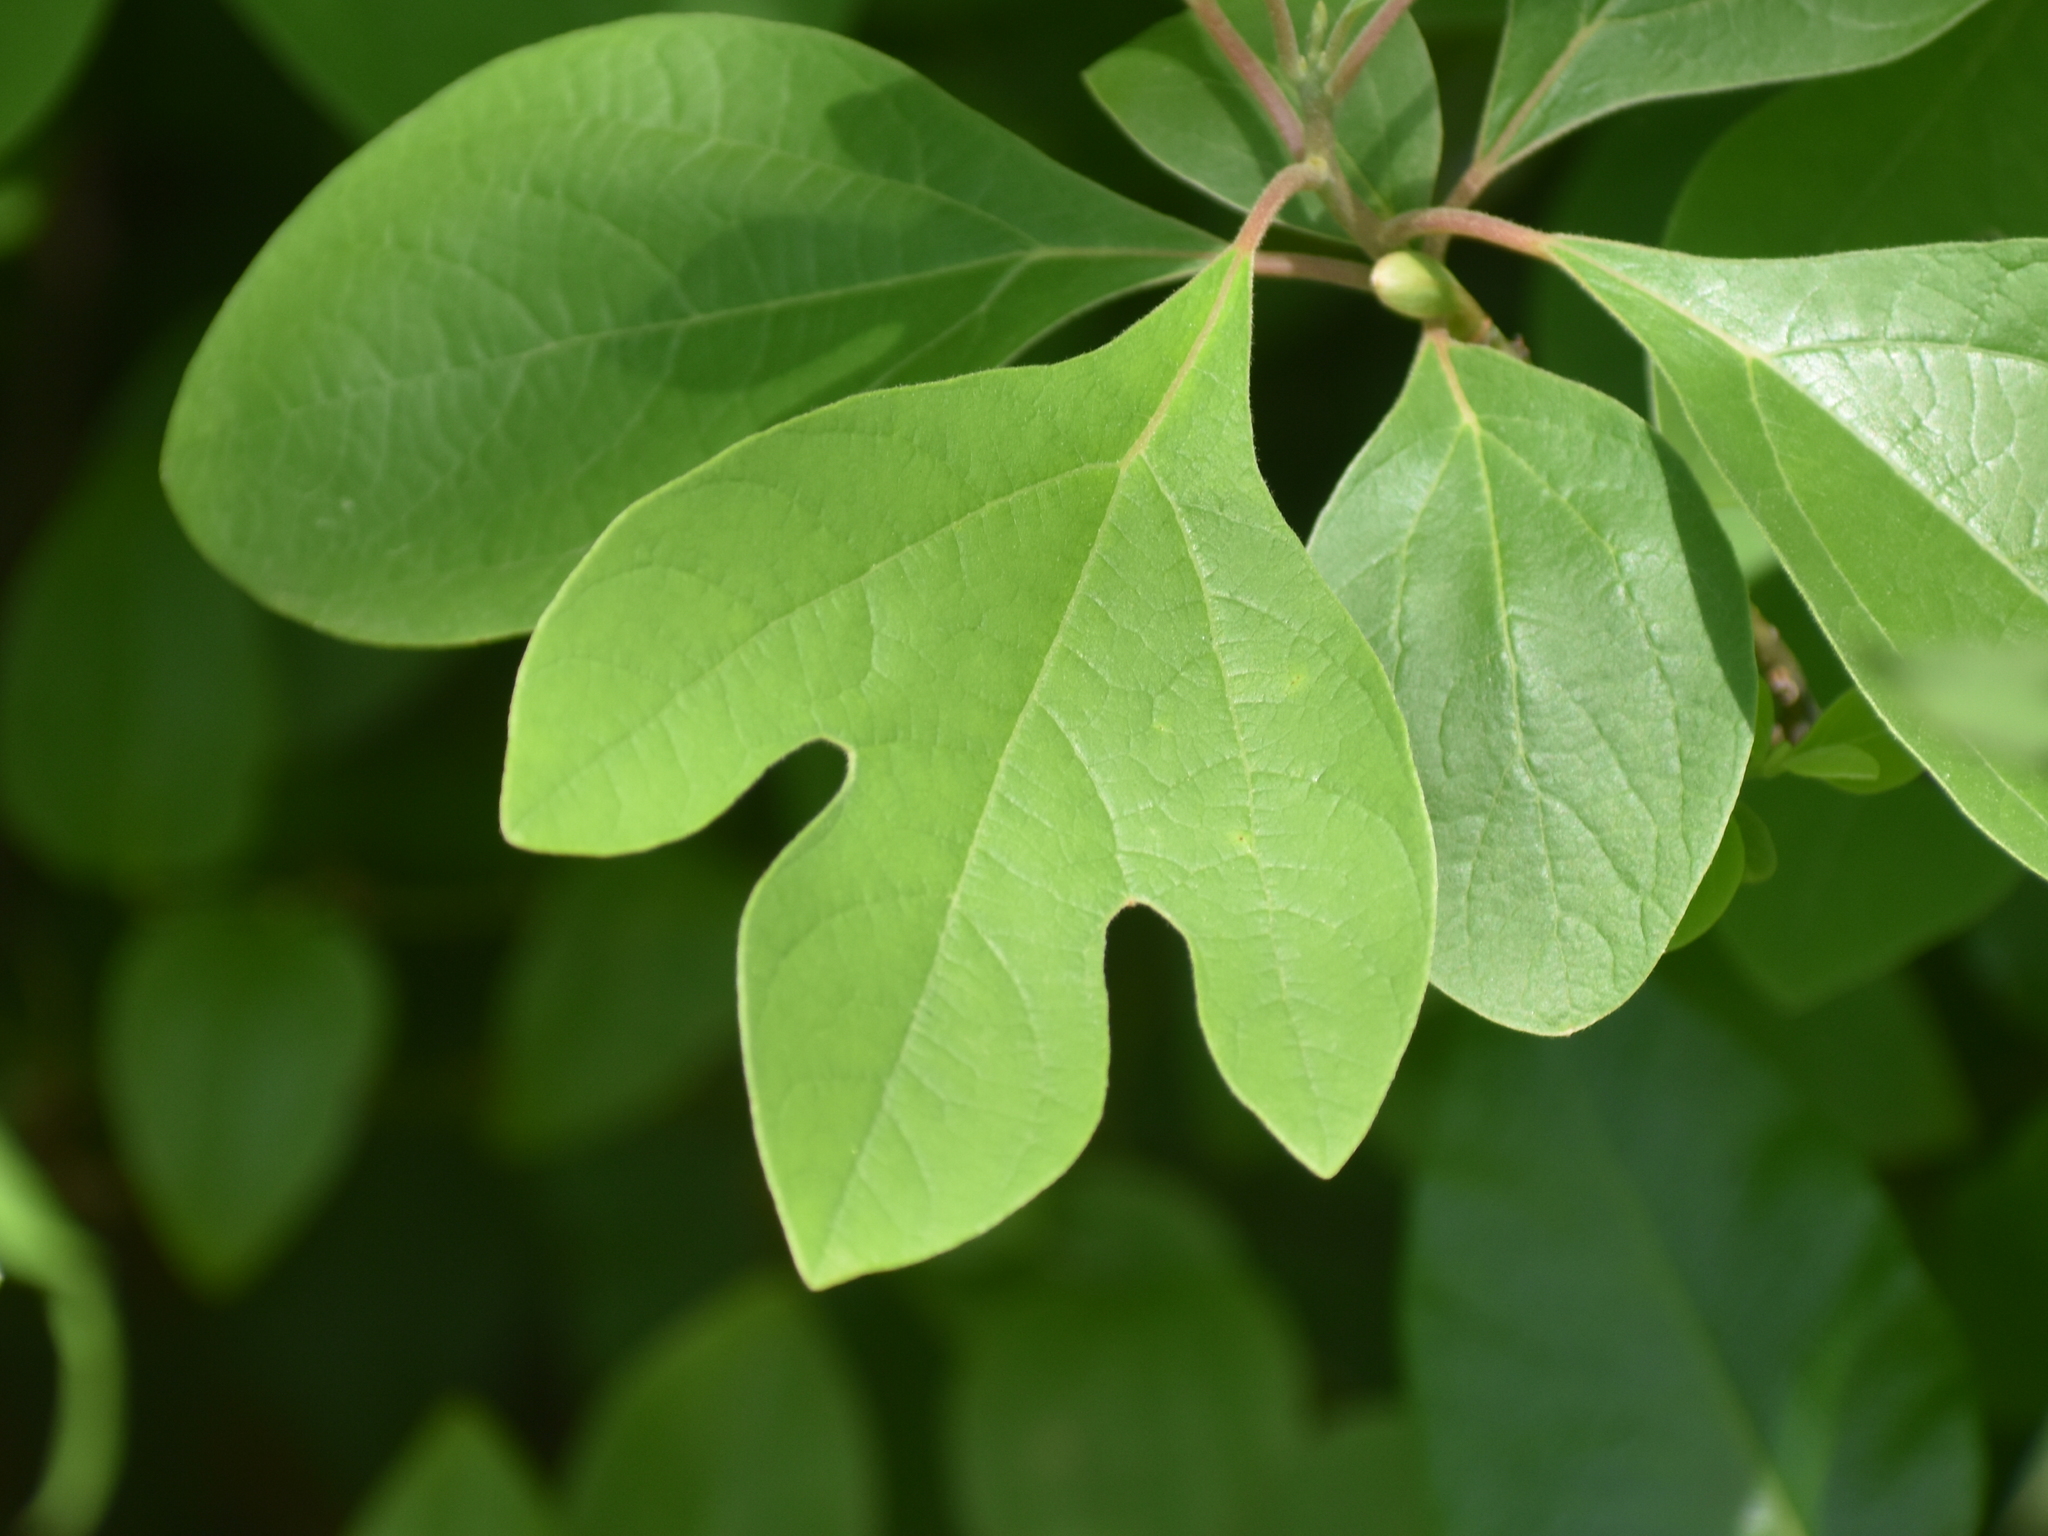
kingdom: Plantae
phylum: Tracheophyta
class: Magnoliopsida
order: Laurales
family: Lauraceae
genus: Sassafras
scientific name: Sassafras albidum
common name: Sassafras
